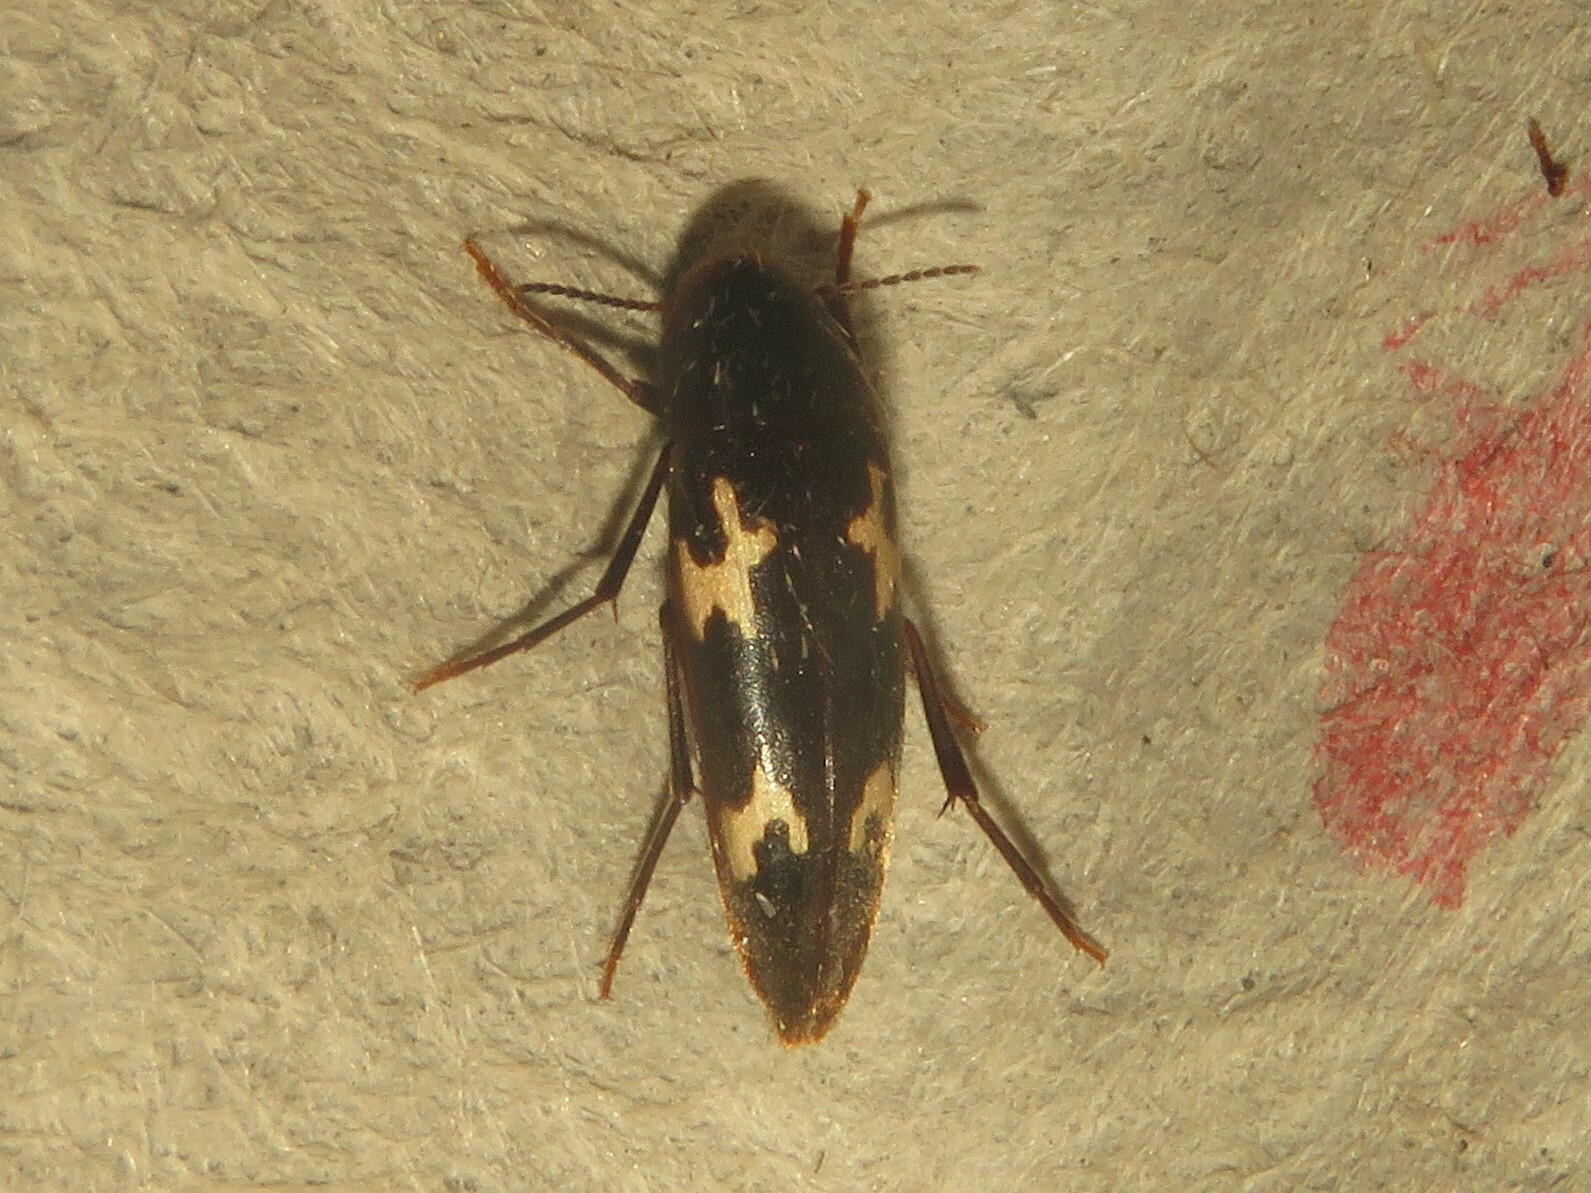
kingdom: Animalia
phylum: Arthropoda
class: Insecta
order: Coleoptera
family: Melandryidae
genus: Dircaea
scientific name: Dircaea liturata
